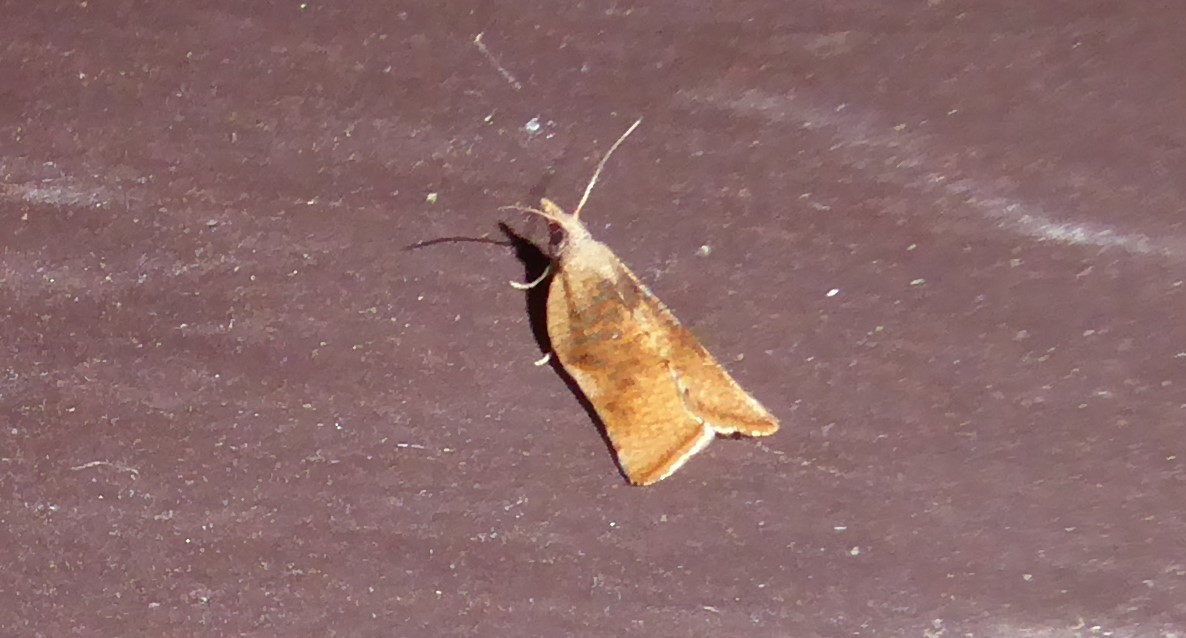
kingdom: Animalia
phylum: Arthropoda
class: Insecta
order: Lepidoptera
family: Tortricidae
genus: Catamacta
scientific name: Catamacta gavisana
